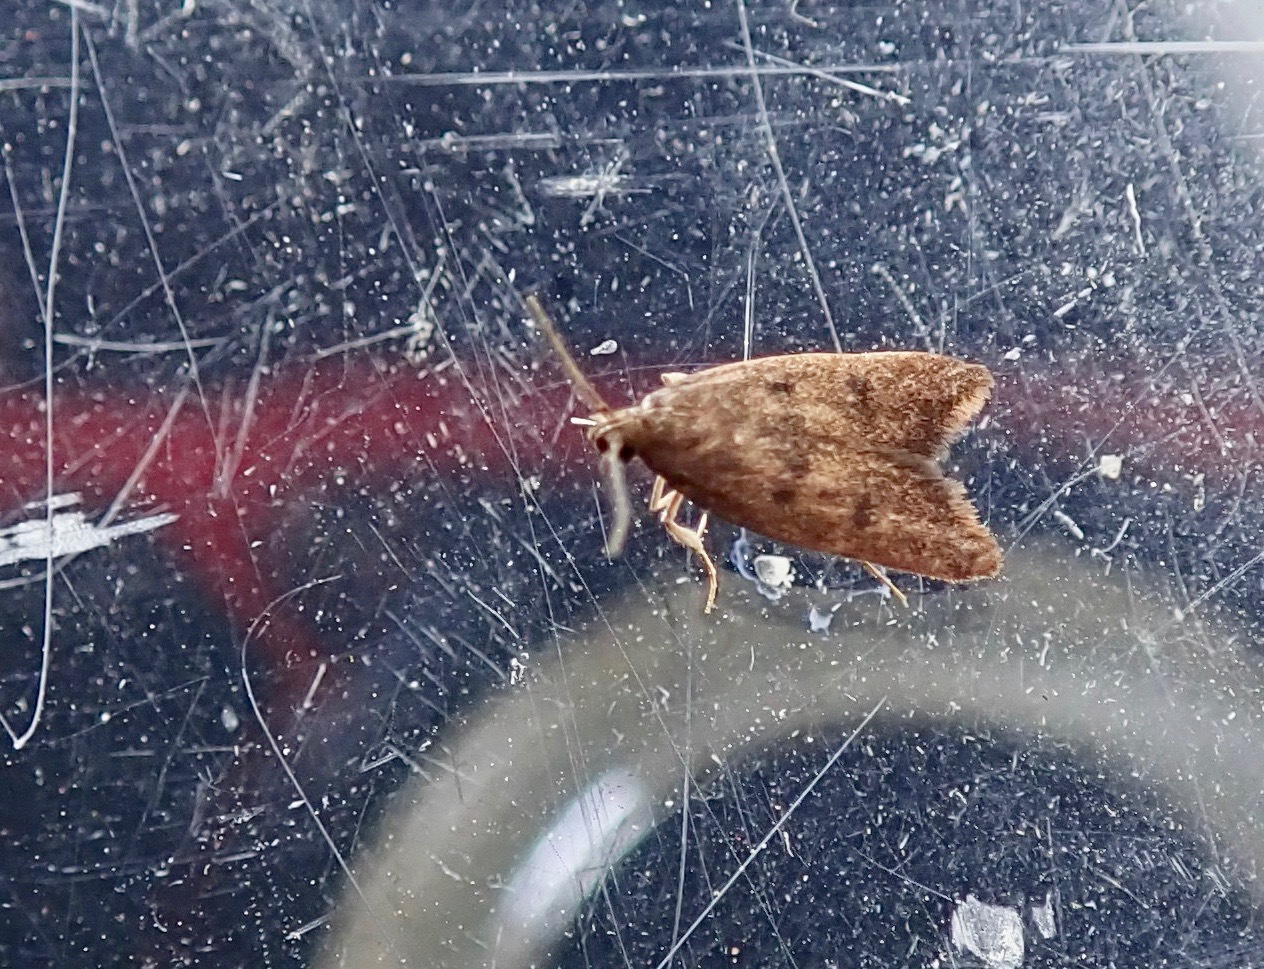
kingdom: Animalia
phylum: Arthropoda
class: Insecta
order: Lepidoptera
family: Oecophoridae
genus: Tachystola
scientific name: Tachystola acroxantha
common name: Ruddy streak
